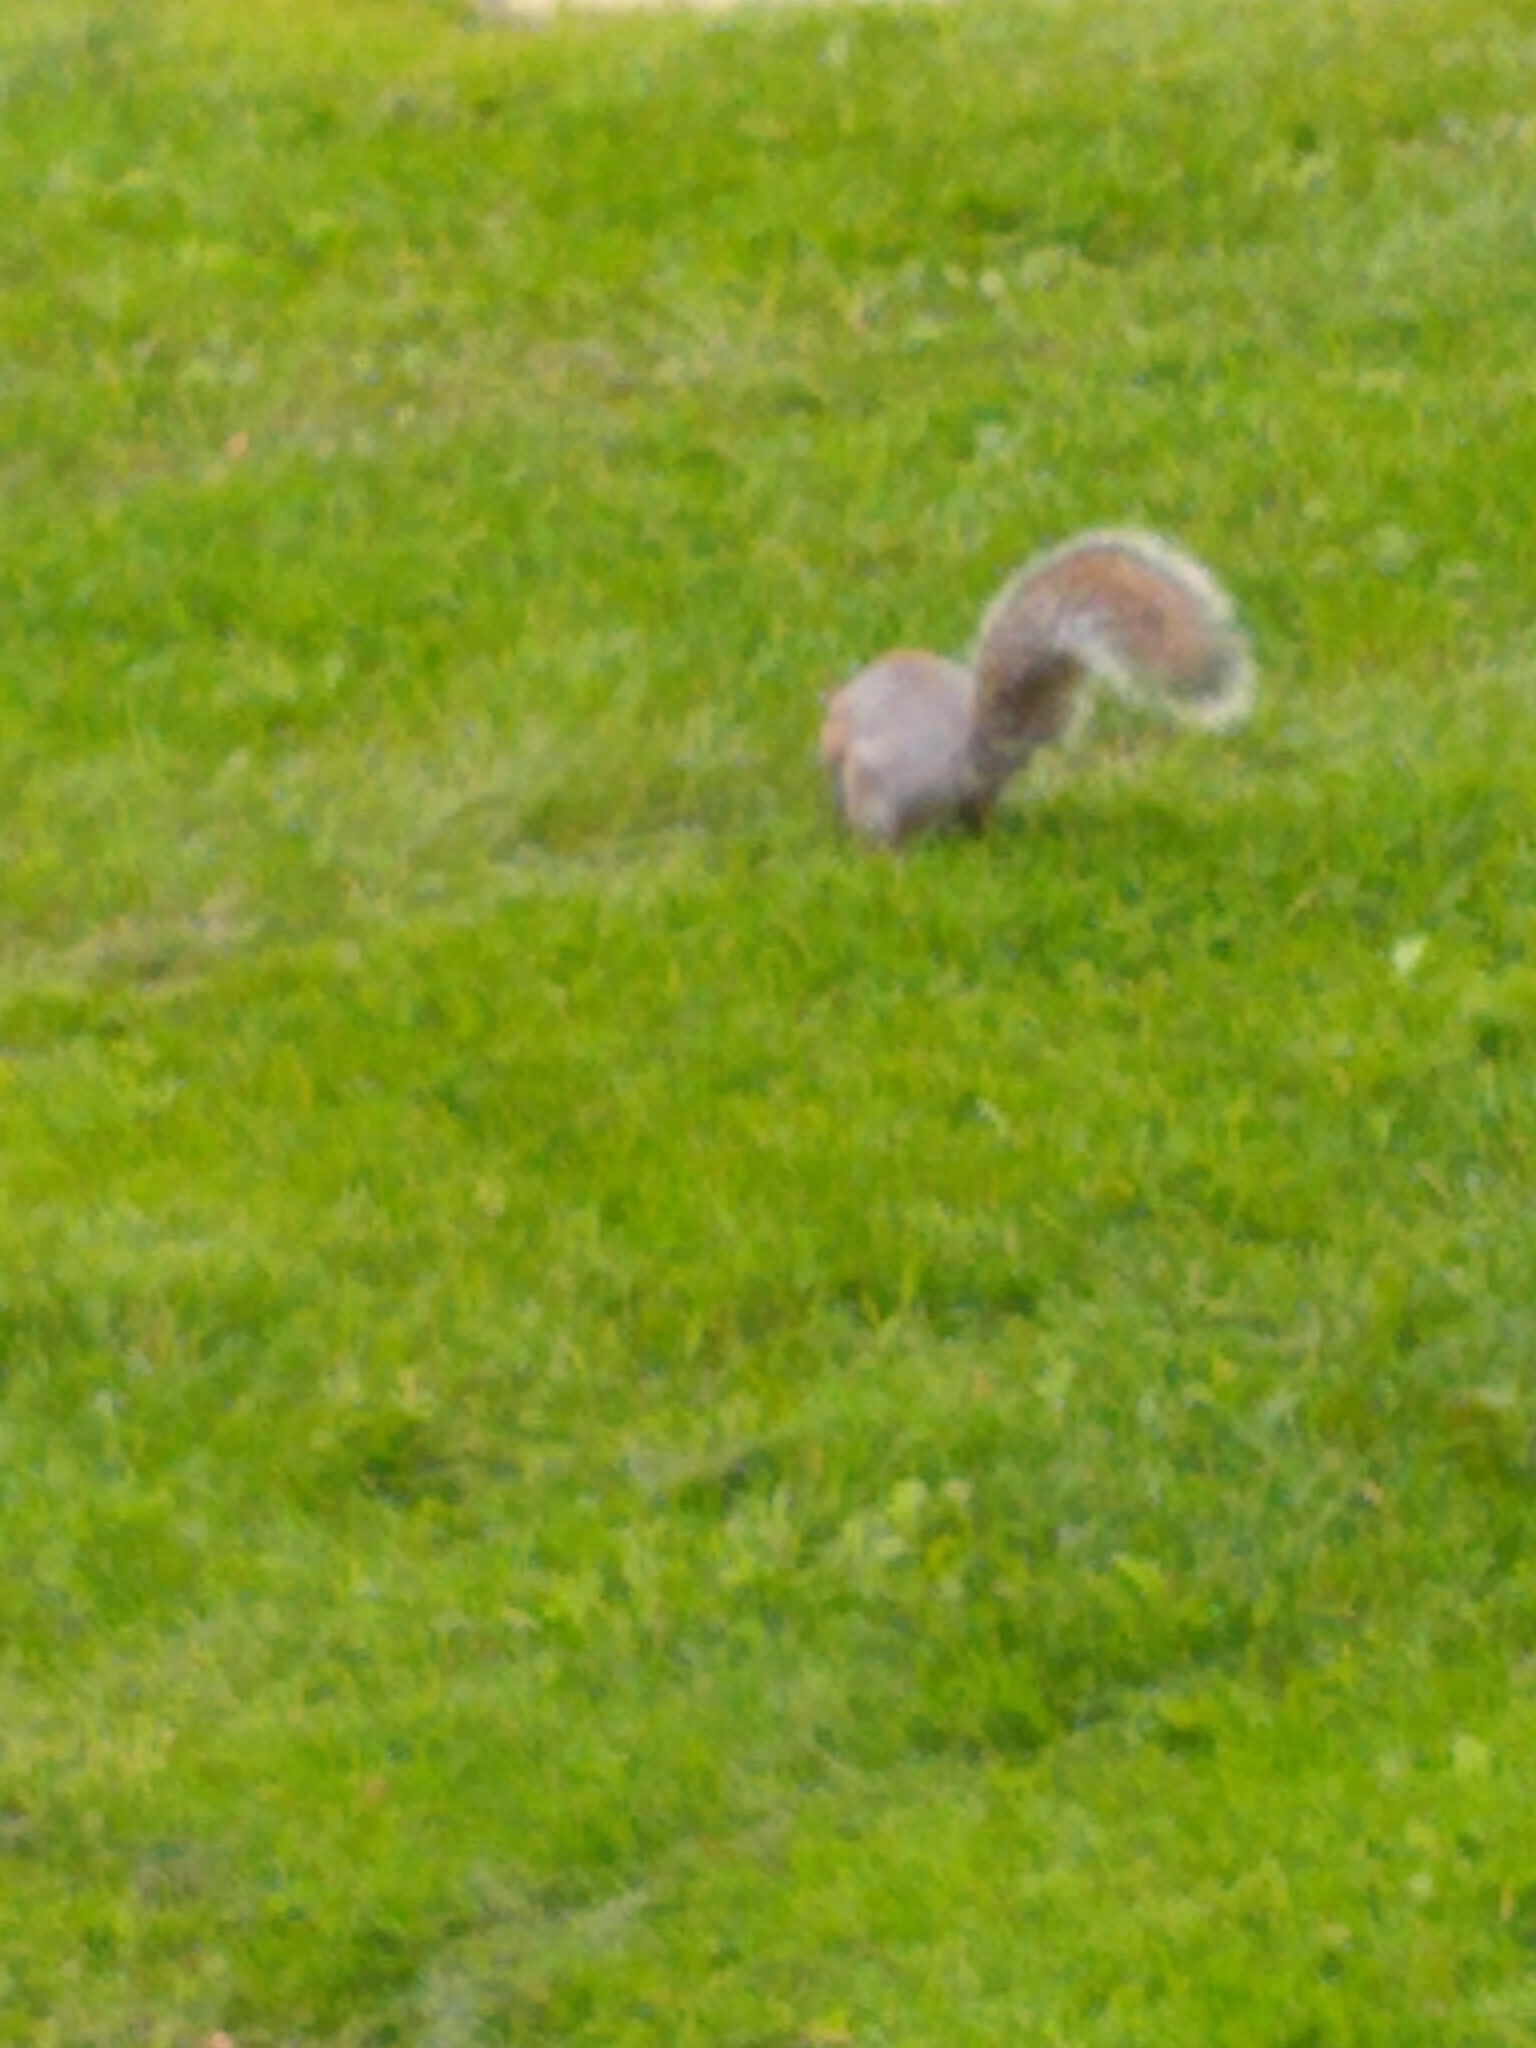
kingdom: Animalia
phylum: Chordata
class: Mammalia
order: Rodentia
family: Sciuridae
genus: Sciurus
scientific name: Sciurus carolinensis
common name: Eastern gray squirrel
